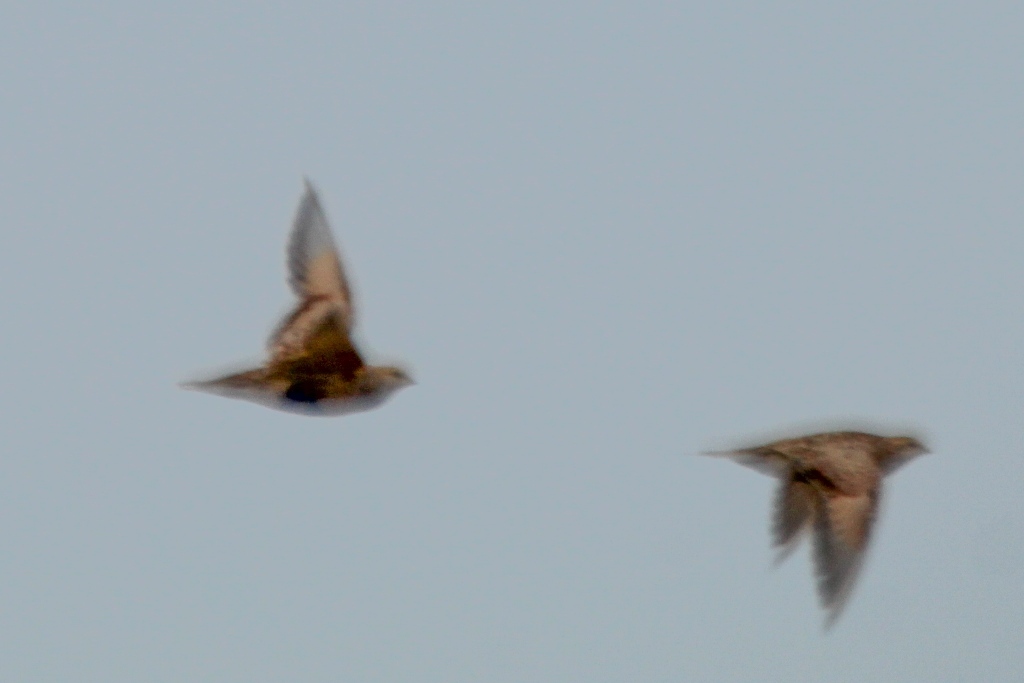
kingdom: Animalia
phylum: Chordata
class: Aves
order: Pteroclidiformes
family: Pteroclididae
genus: Syrrhaptes
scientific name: Syrrhaptes paradoxus
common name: Pallas's sandgrouse
